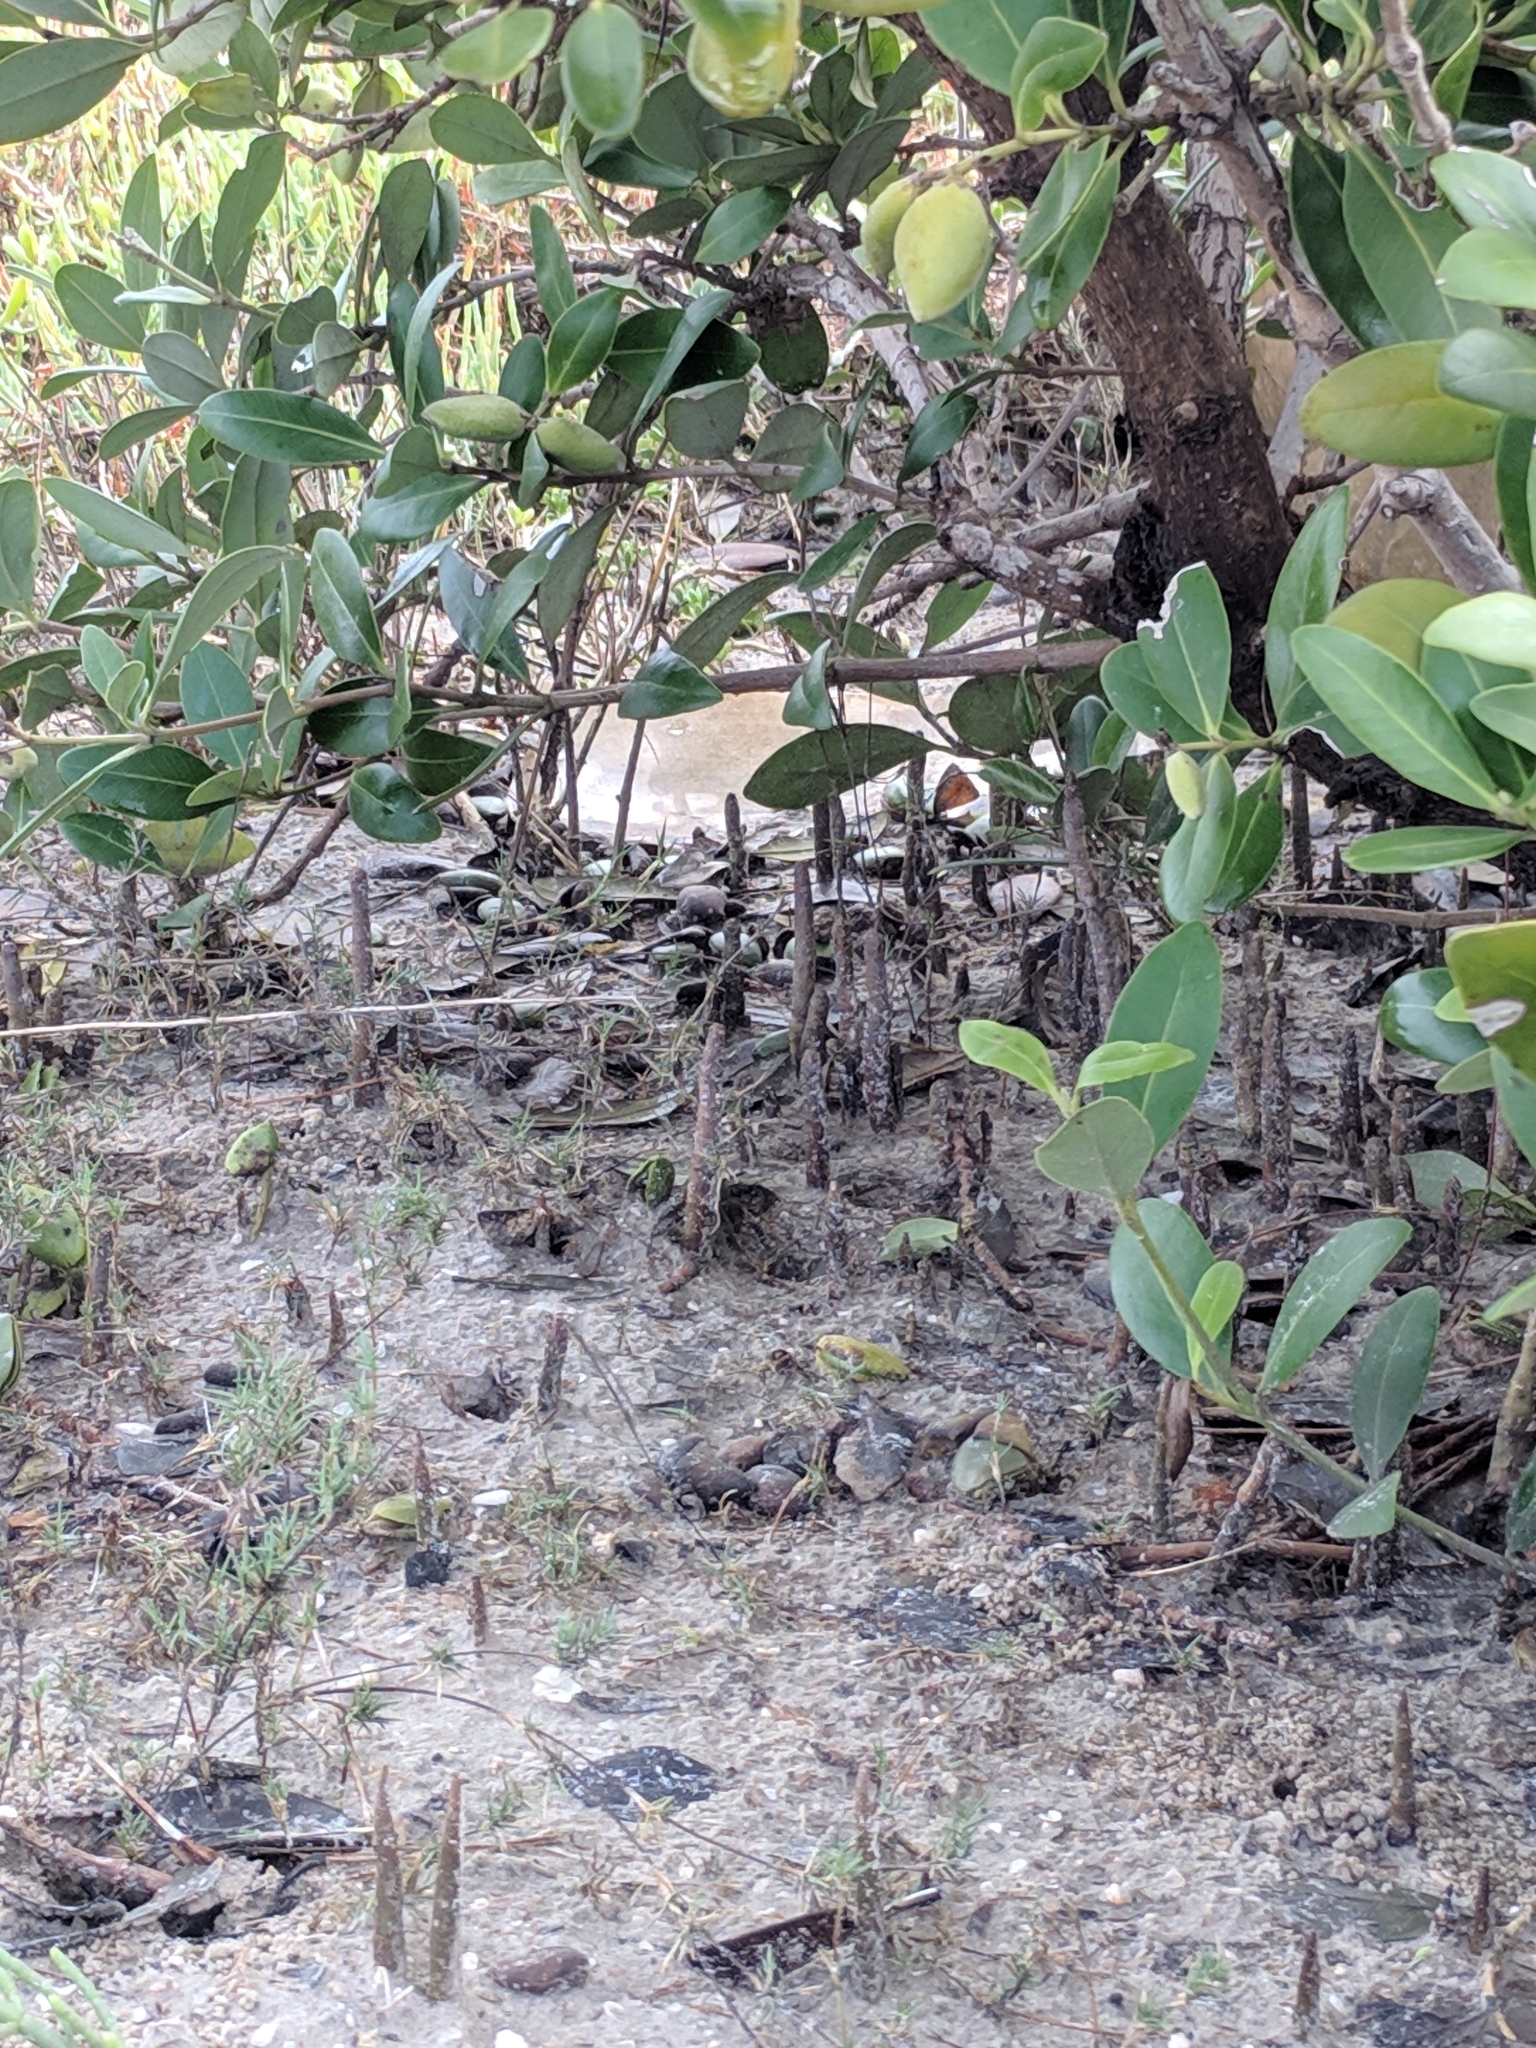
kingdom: Plantae
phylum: Tracheophyta
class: Magnoliopsida
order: Lamiales
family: Acanthaceae
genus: Avicennia
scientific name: Avicennia germinans
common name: Black mangrove
